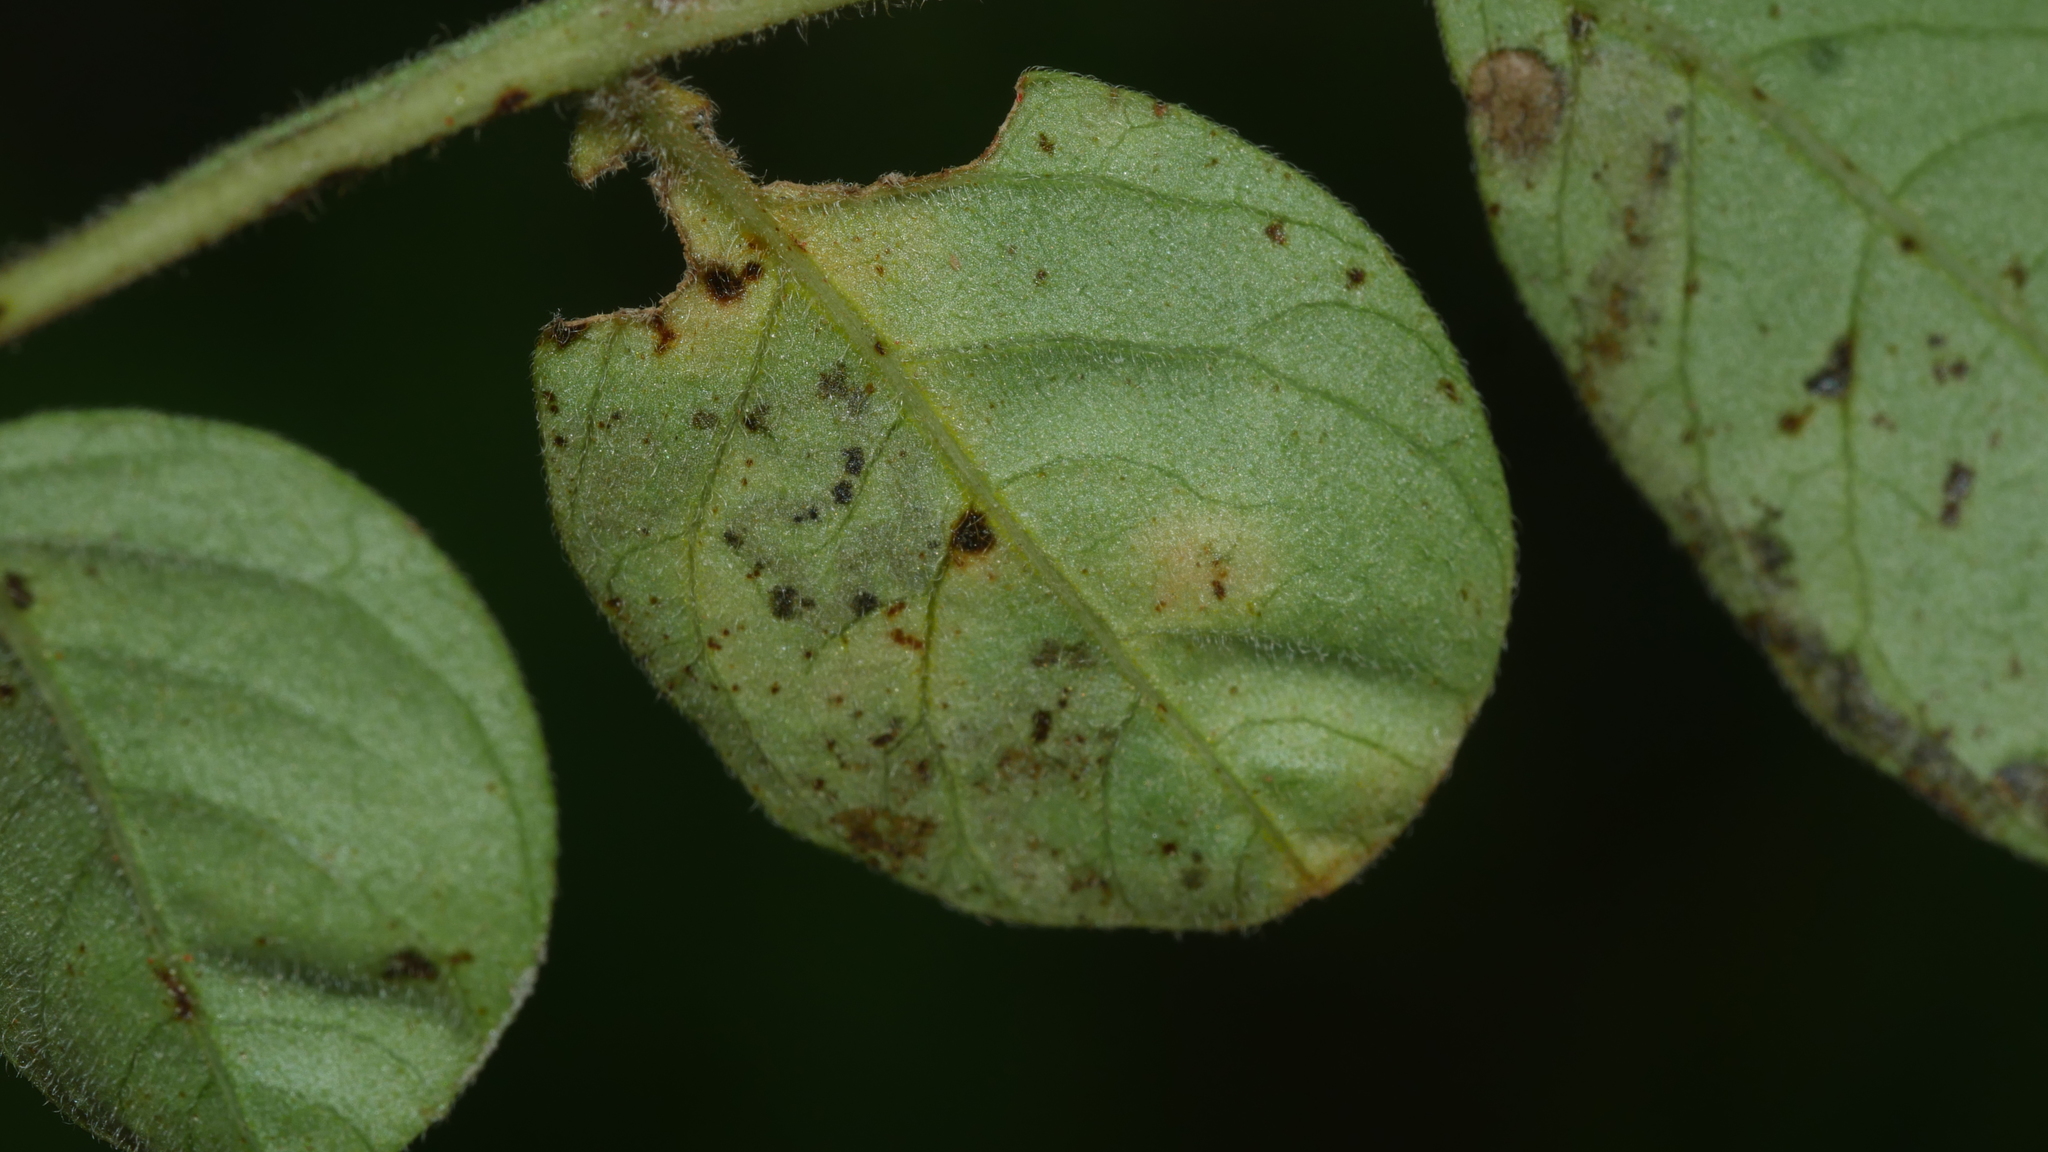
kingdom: Animalia
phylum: Arthropoda
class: Insecta
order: Lepidoptera
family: Nepticulidae
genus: Stigmella
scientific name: Stigmella intermedia
